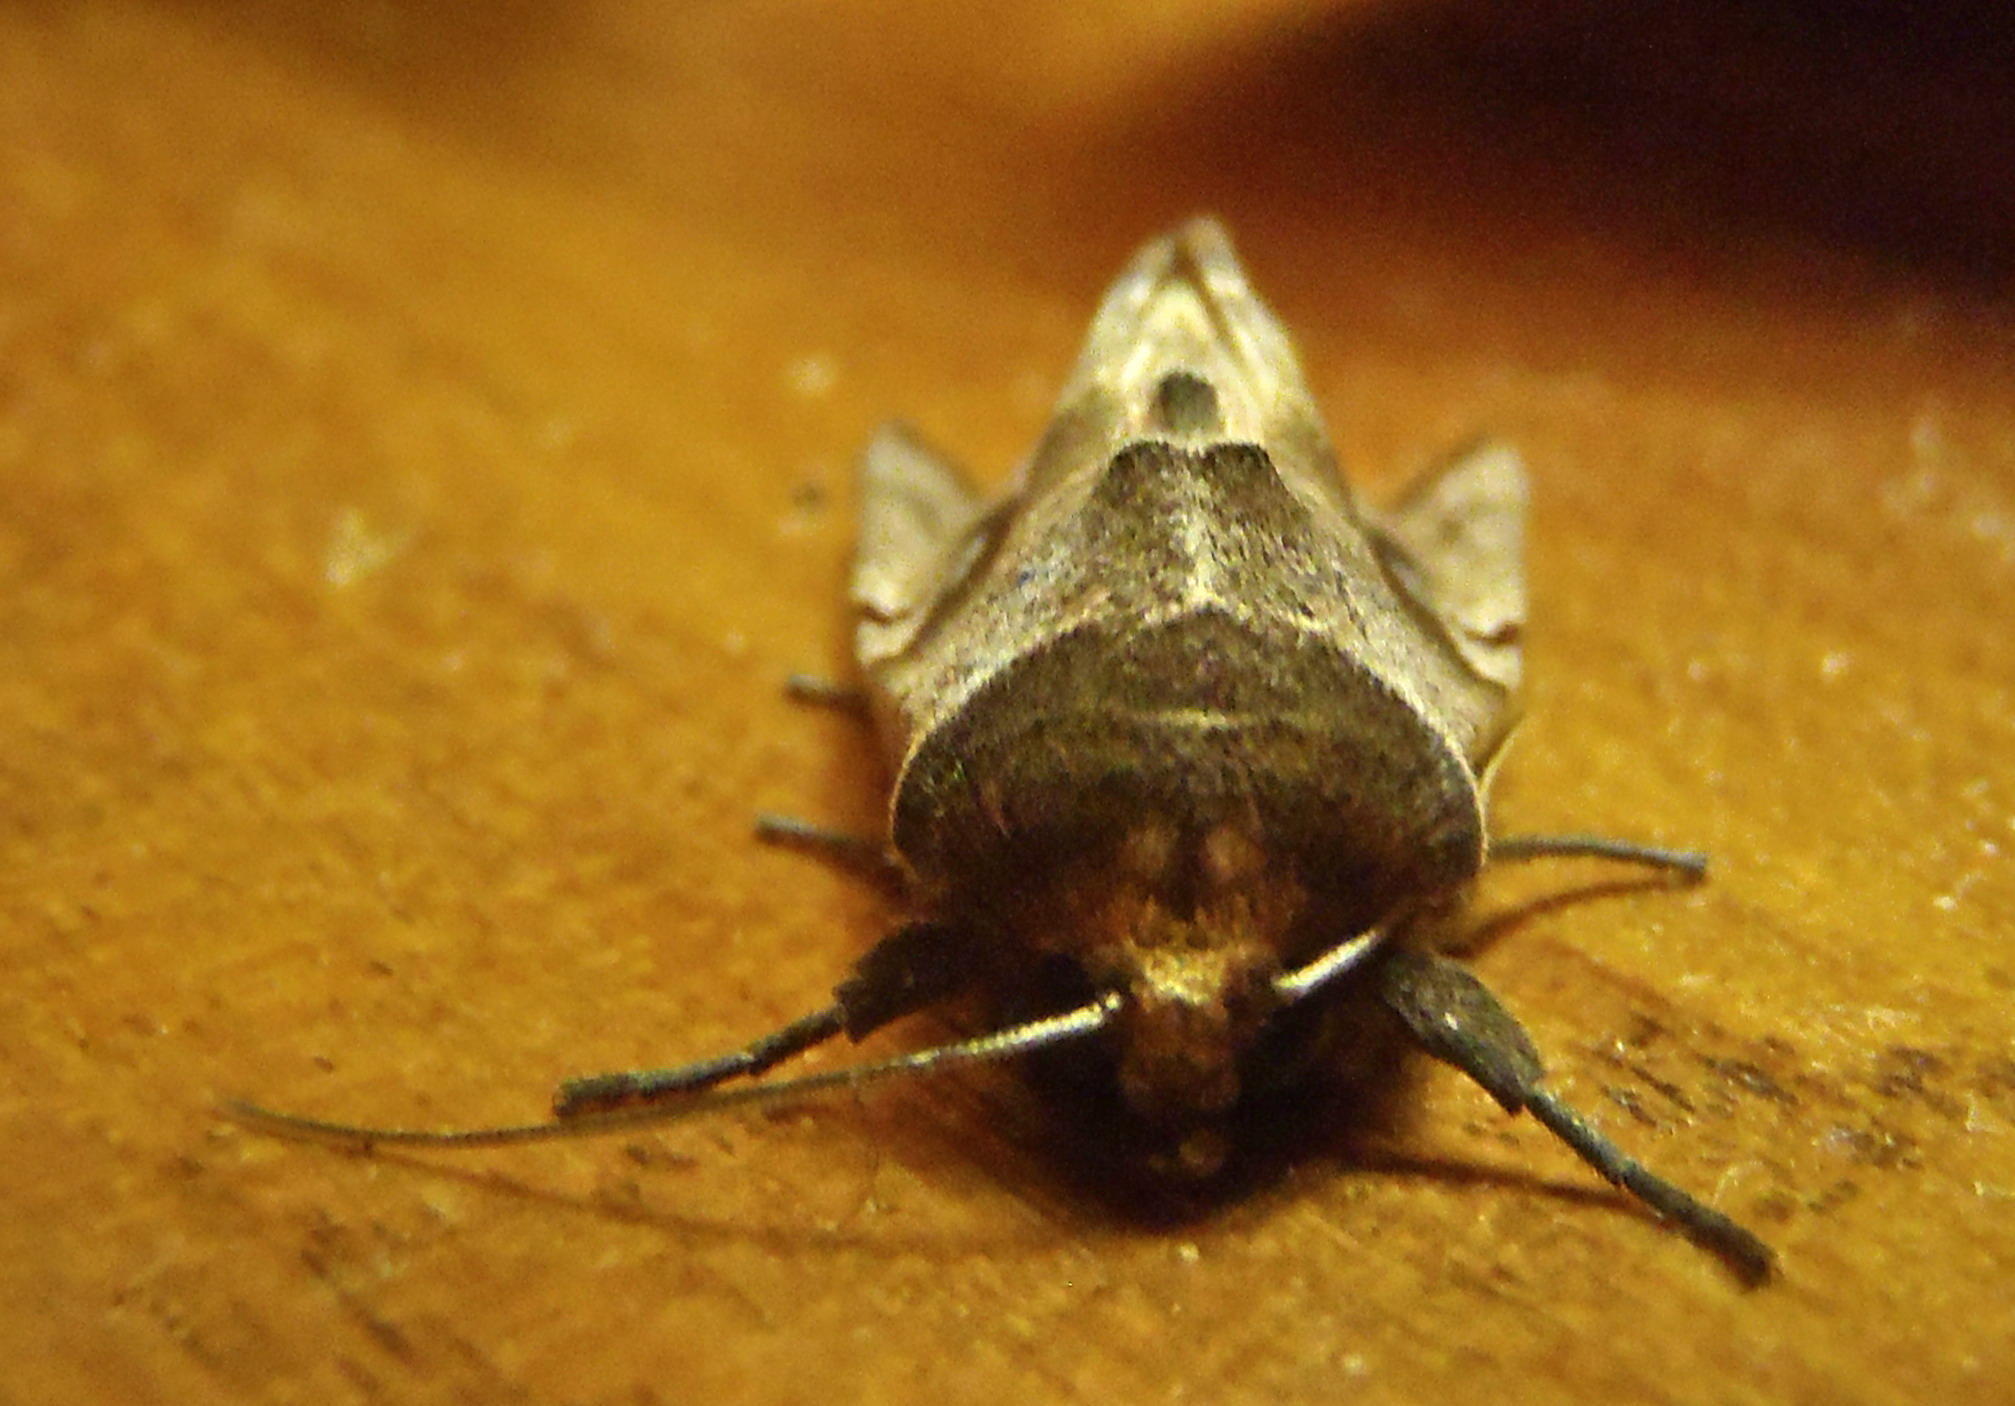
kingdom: Animalia
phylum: Arthropoda
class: Insecta
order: Lepidoptera
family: Noctuidae
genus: Conservula
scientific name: Conservula cinisigna
